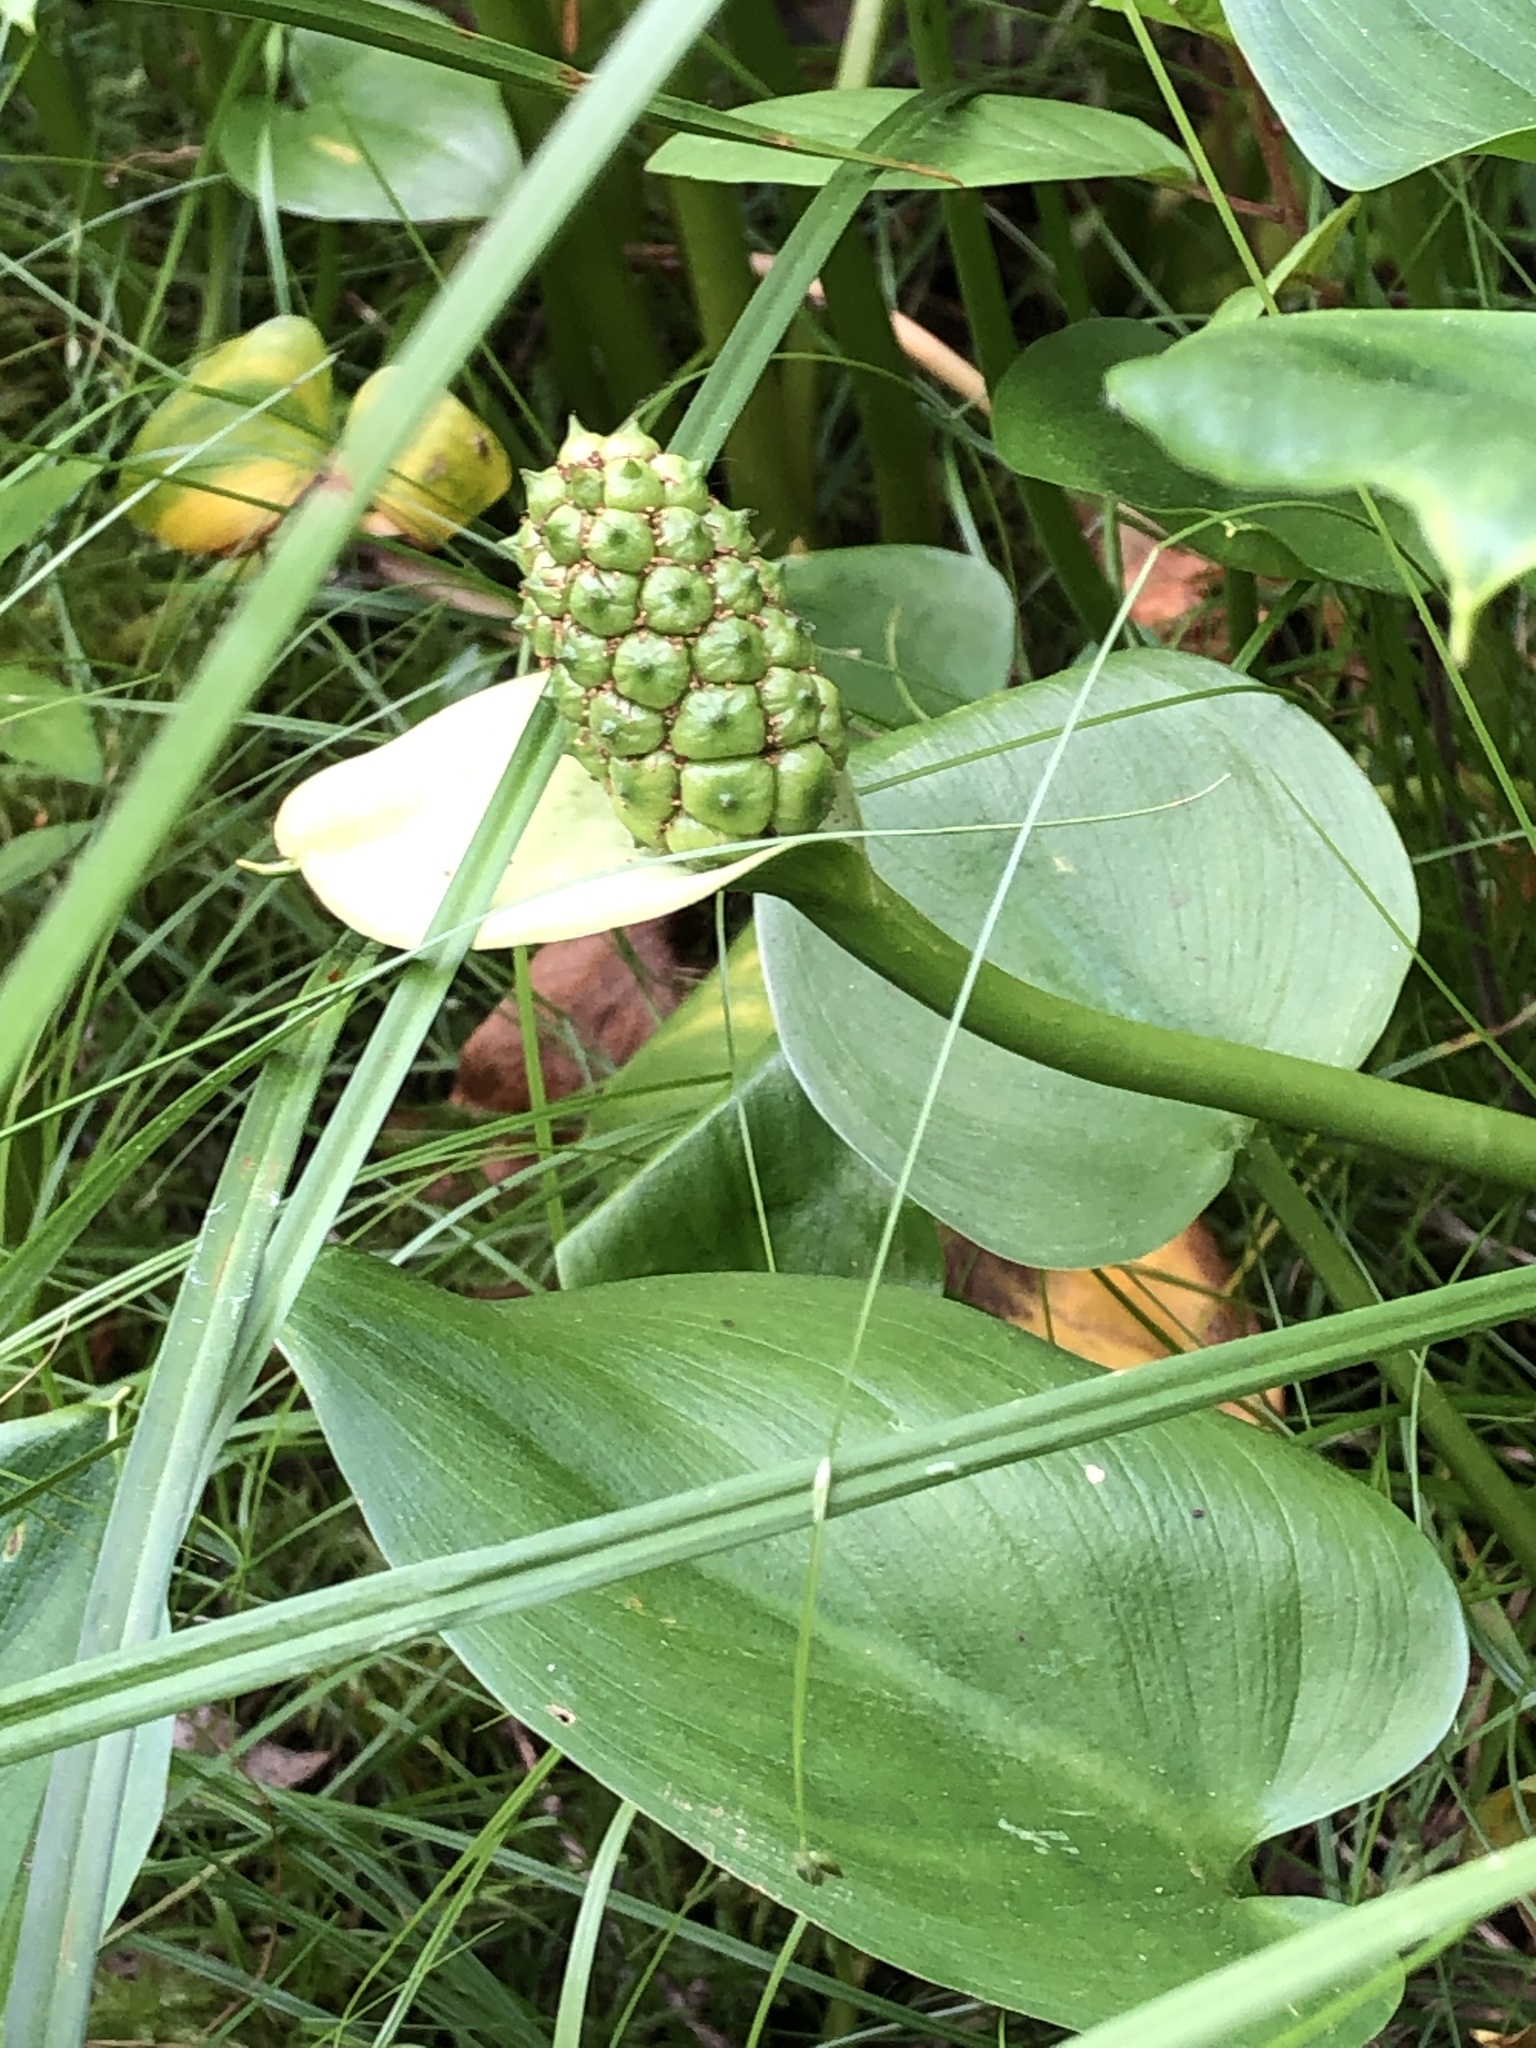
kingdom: Plantae
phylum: Tracheophyta
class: Liliopsida
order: Alismatales
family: Araceae
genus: Calla
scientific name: Calla palustris
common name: Bog arum
